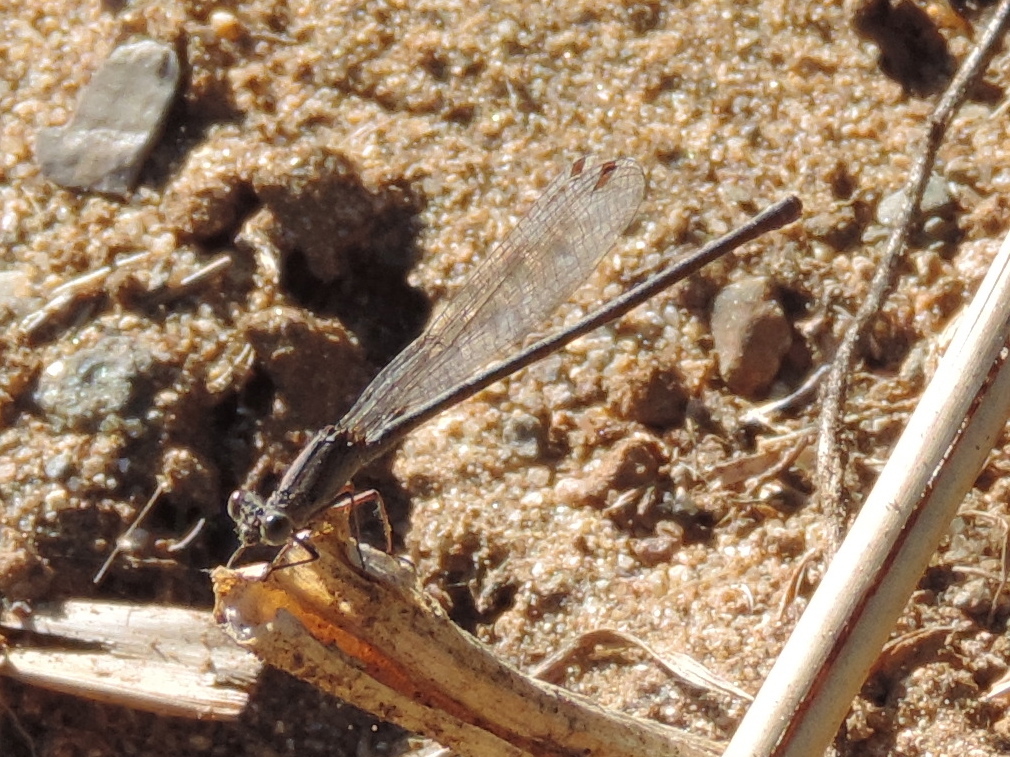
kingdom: Animalia
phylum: Arthropoda
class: Insecta
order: Odonata
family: Coenagrionidae
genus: Argia
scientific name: Argia
